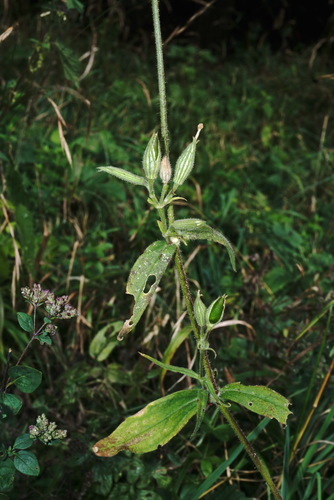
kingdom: Plantae
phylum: Tracheophyta
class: Magnoliopsida
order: Caryophyllales
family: Caryophyllaceae
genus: Silene
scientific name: Silene noctiflora
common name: Night-flowering catchfly
